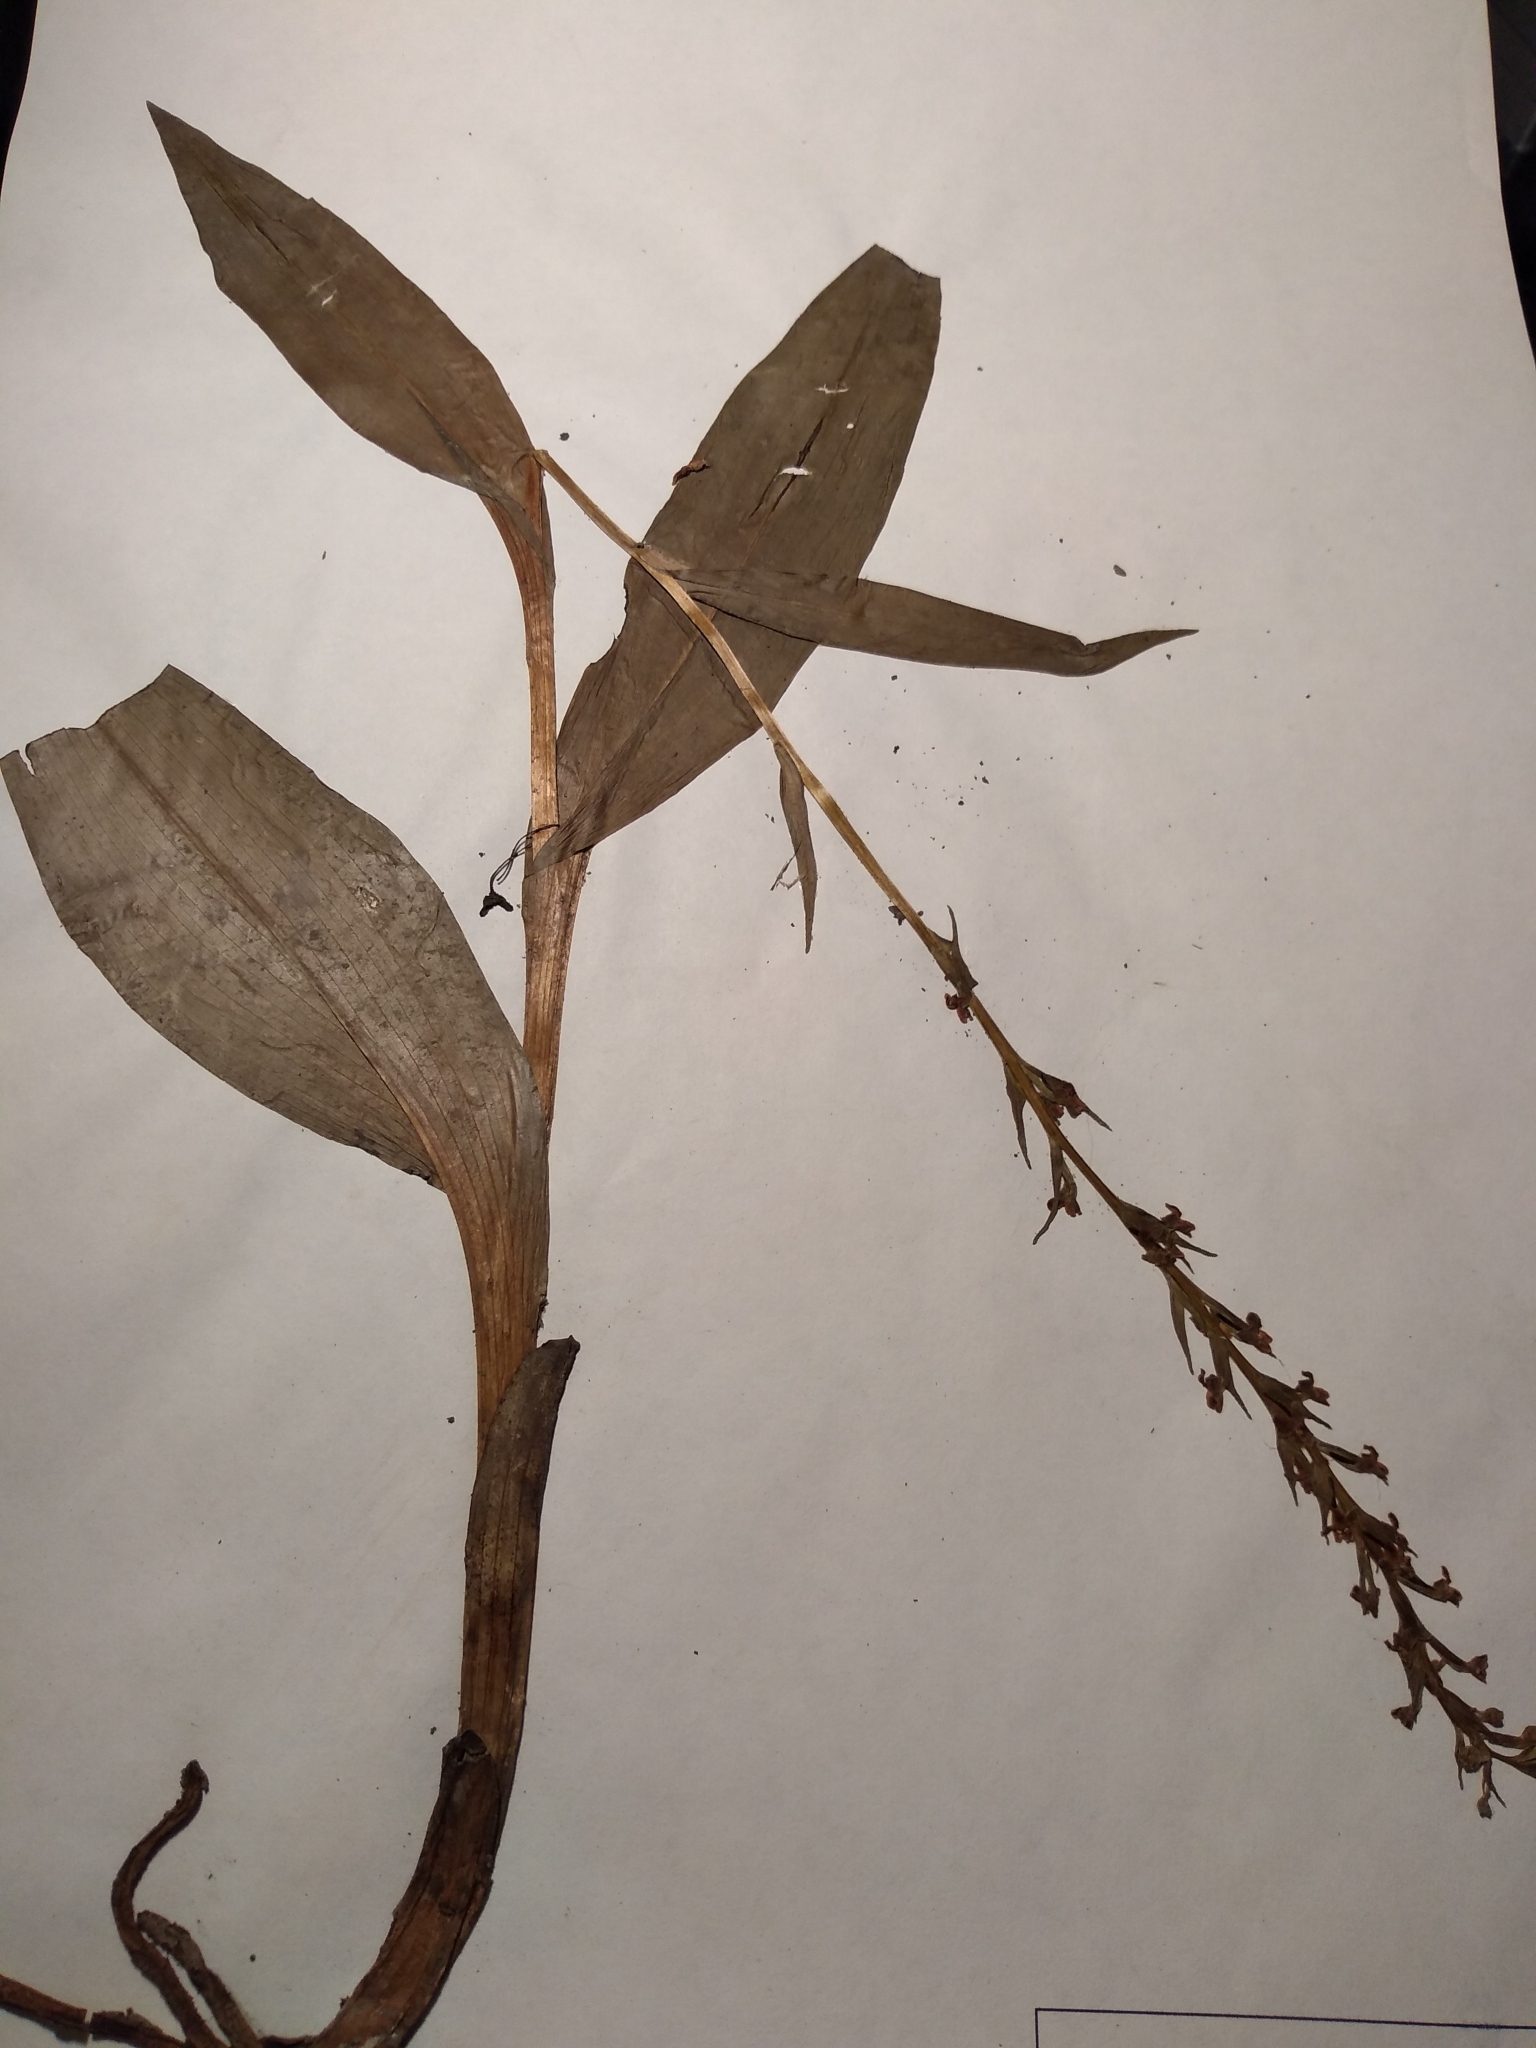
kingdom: Plantae
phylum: Tracheophyta
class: Liliopsida
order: Asparagales
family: Orchidaceae
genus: Platanthera
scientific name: Platanthera flava
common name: Gypsy-spikes
